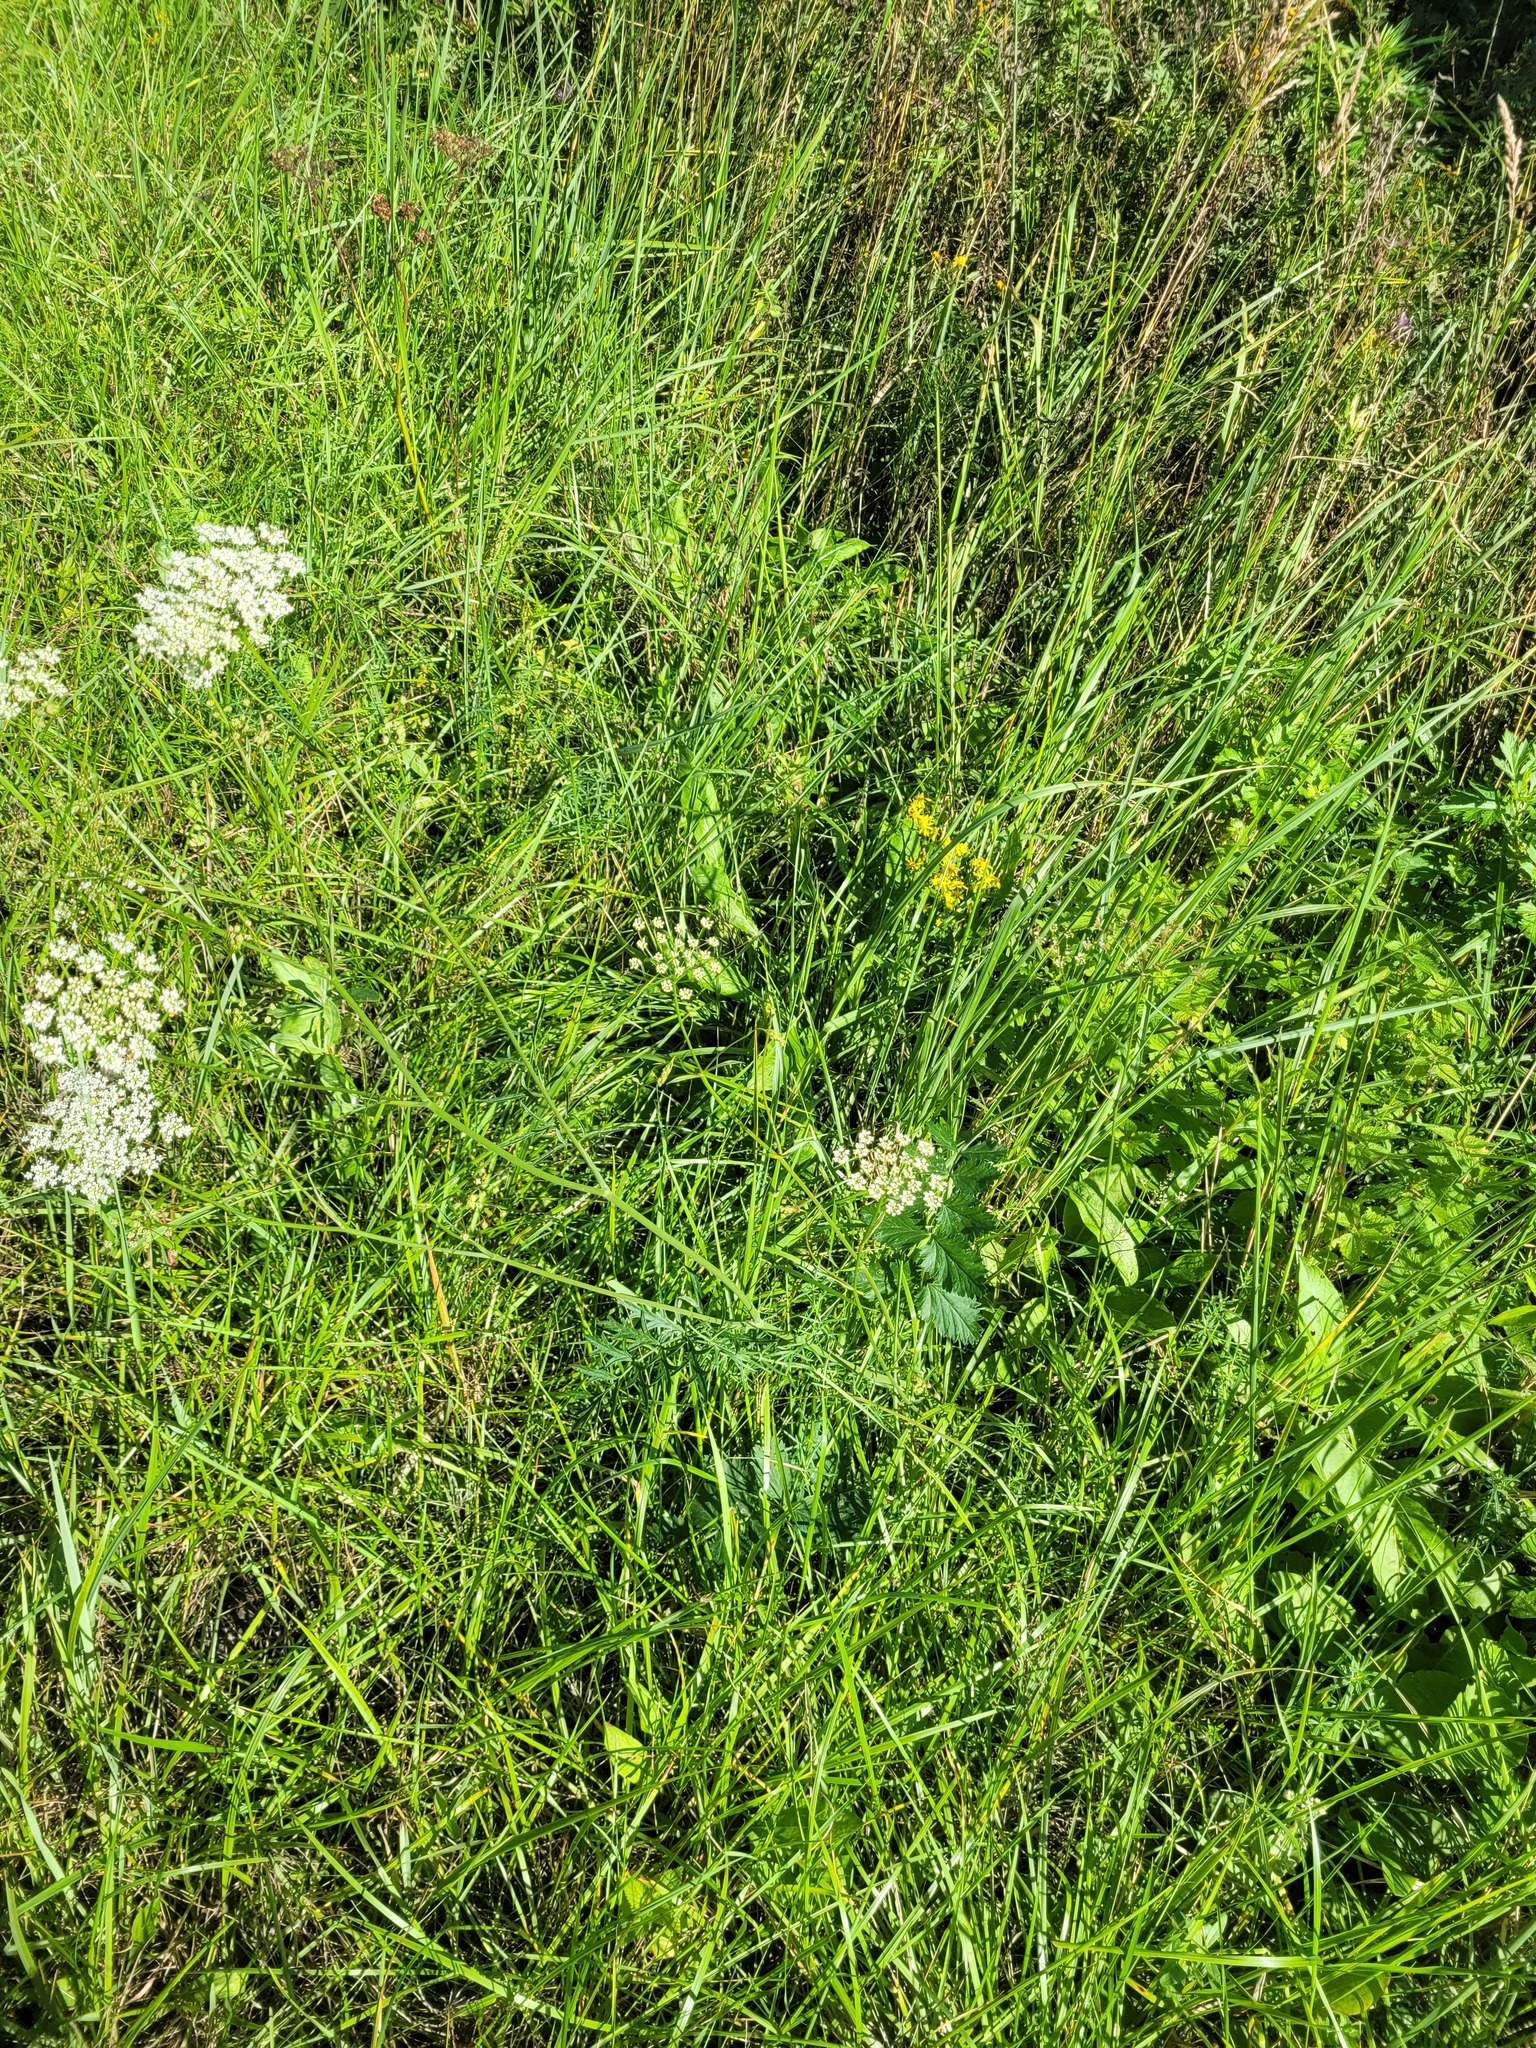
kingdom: Plantae
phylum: Tracheophyta
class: Magnoliopsida
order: Apiales
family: Apiaceae
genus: Pimpinella
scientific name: Pimpinella saxifraga
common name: Burnet-saxifrage
